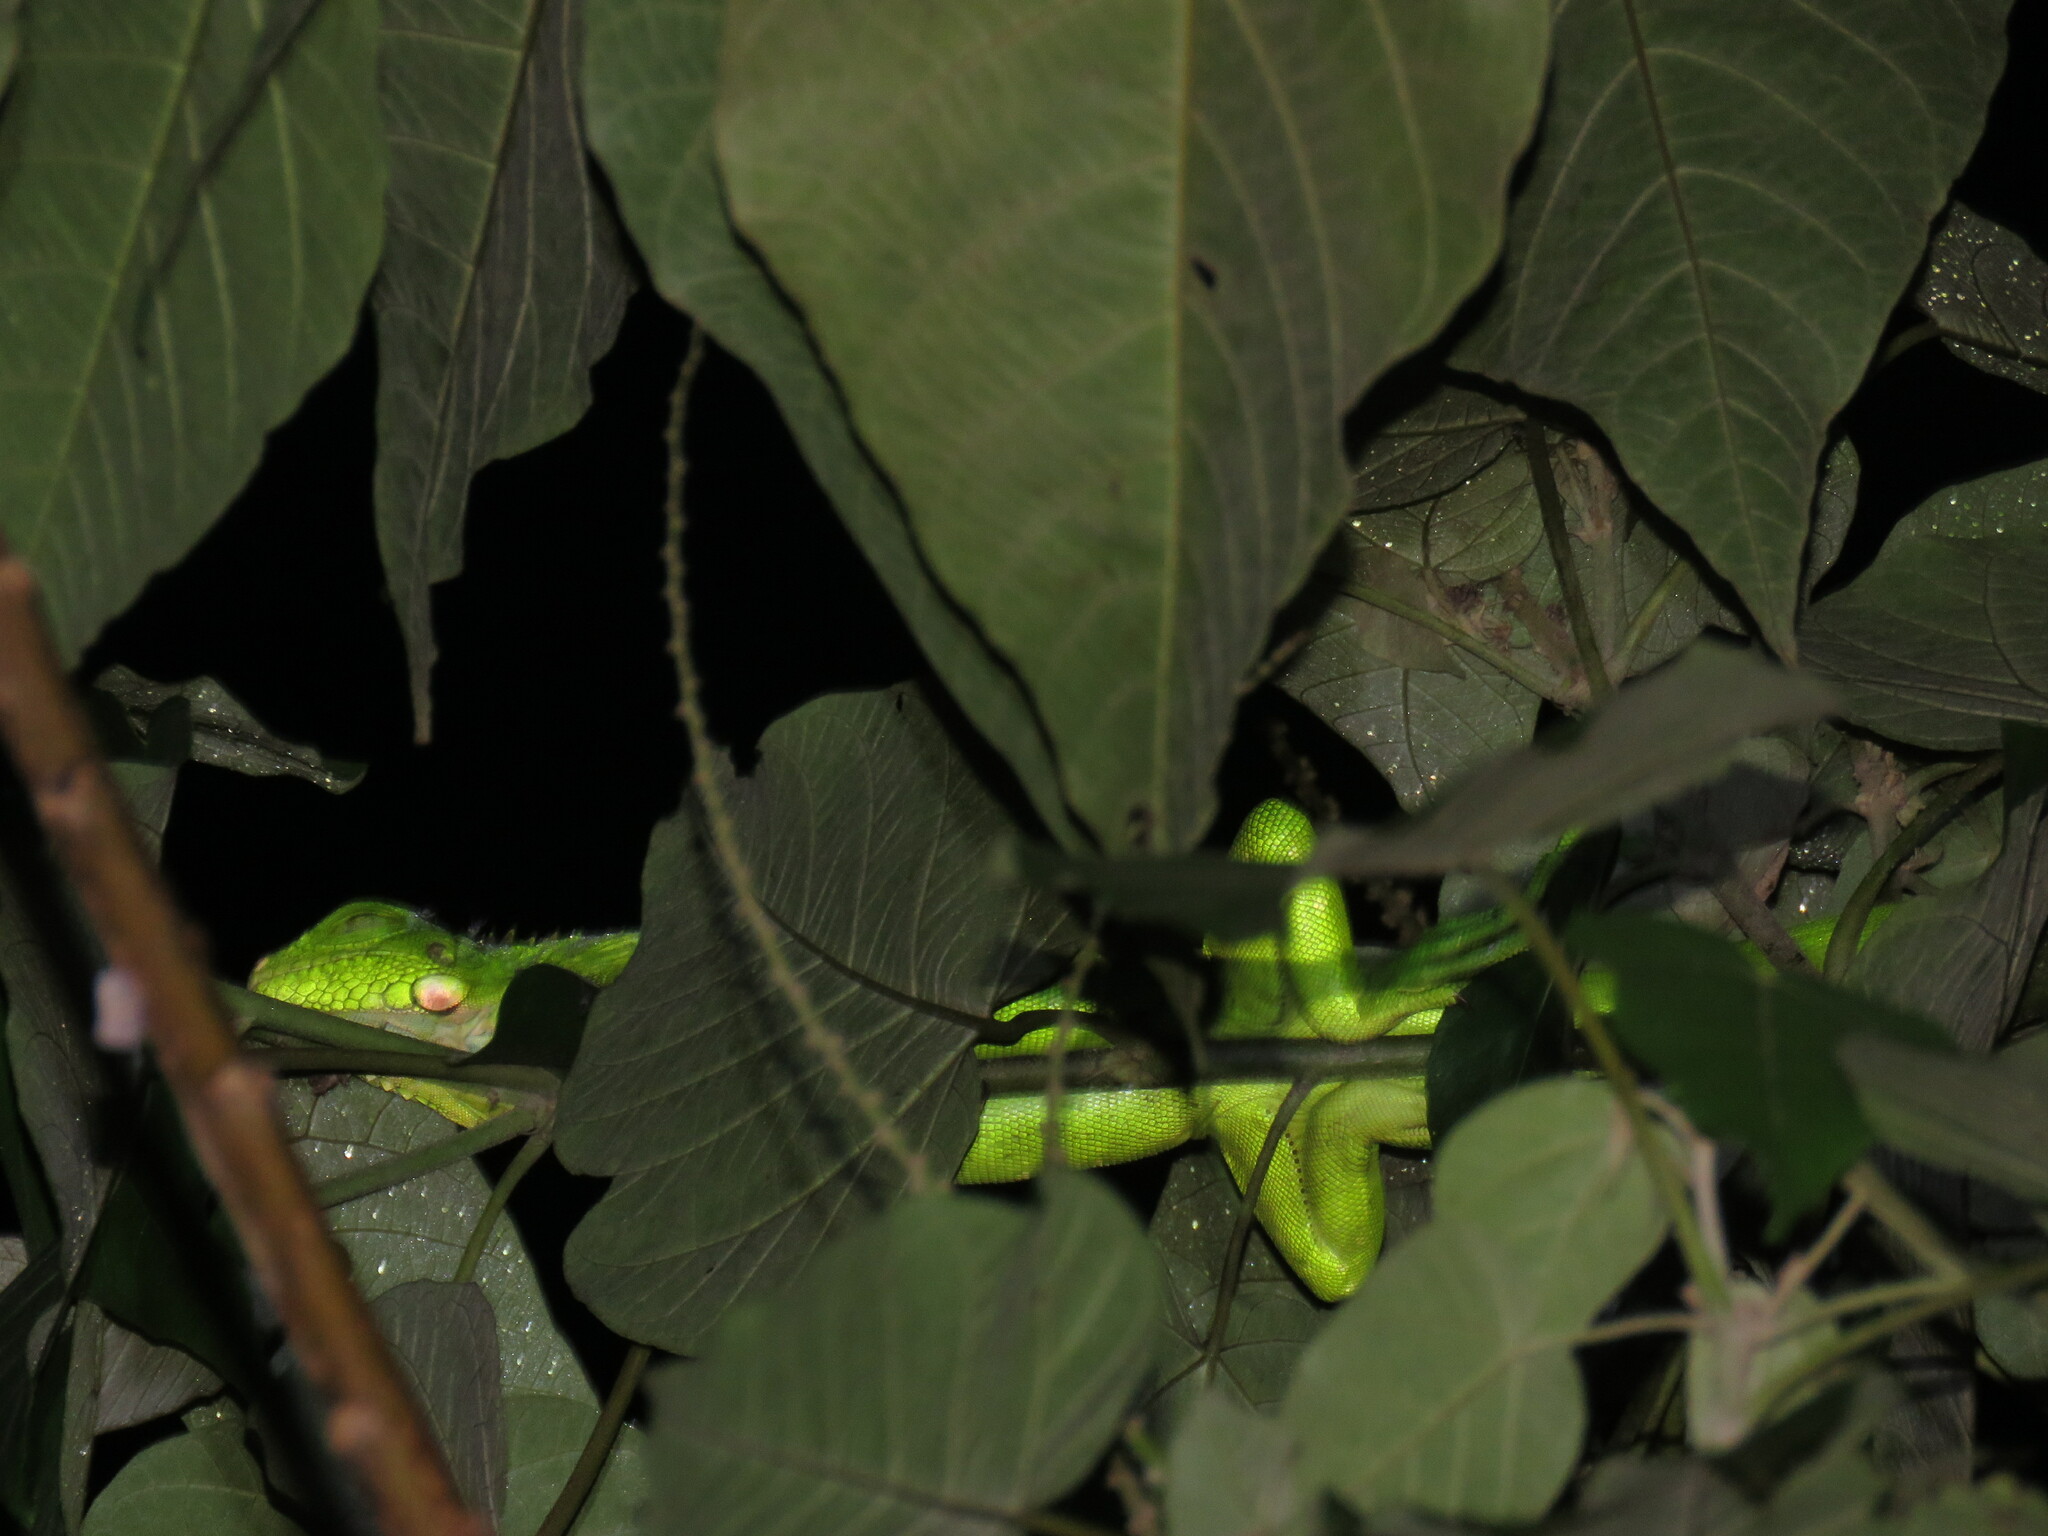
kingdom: Animalia
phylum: Chordata
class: Squamata
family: Iguanidae
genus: Iguana
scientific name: Iguana iguana
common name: Green iguana
